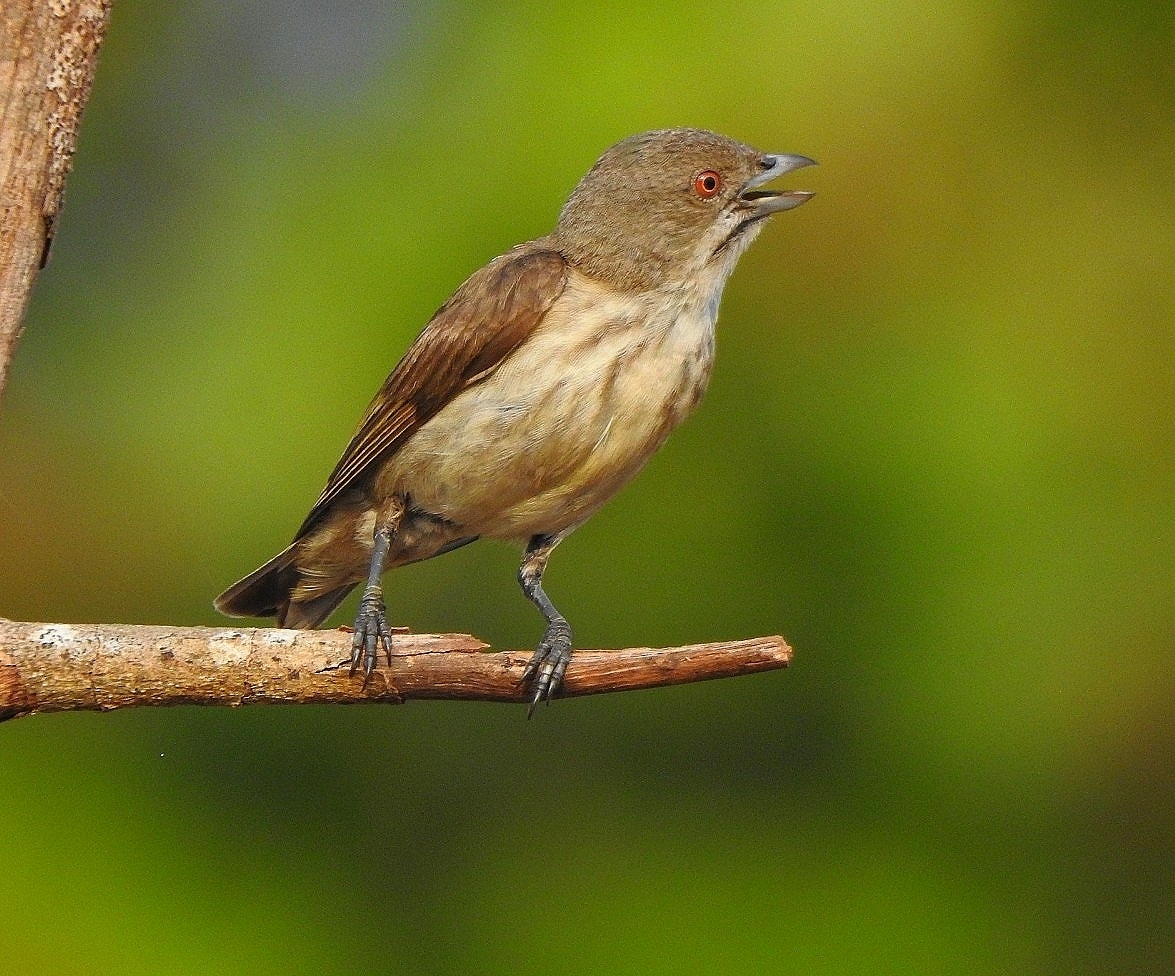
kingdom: Animalia
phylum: Chordata
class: Aves
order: Passeriformes
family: Dicaeidae
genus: Dicaeum
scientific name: Dicaeum agile
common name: Thick-billed flowerpecker
